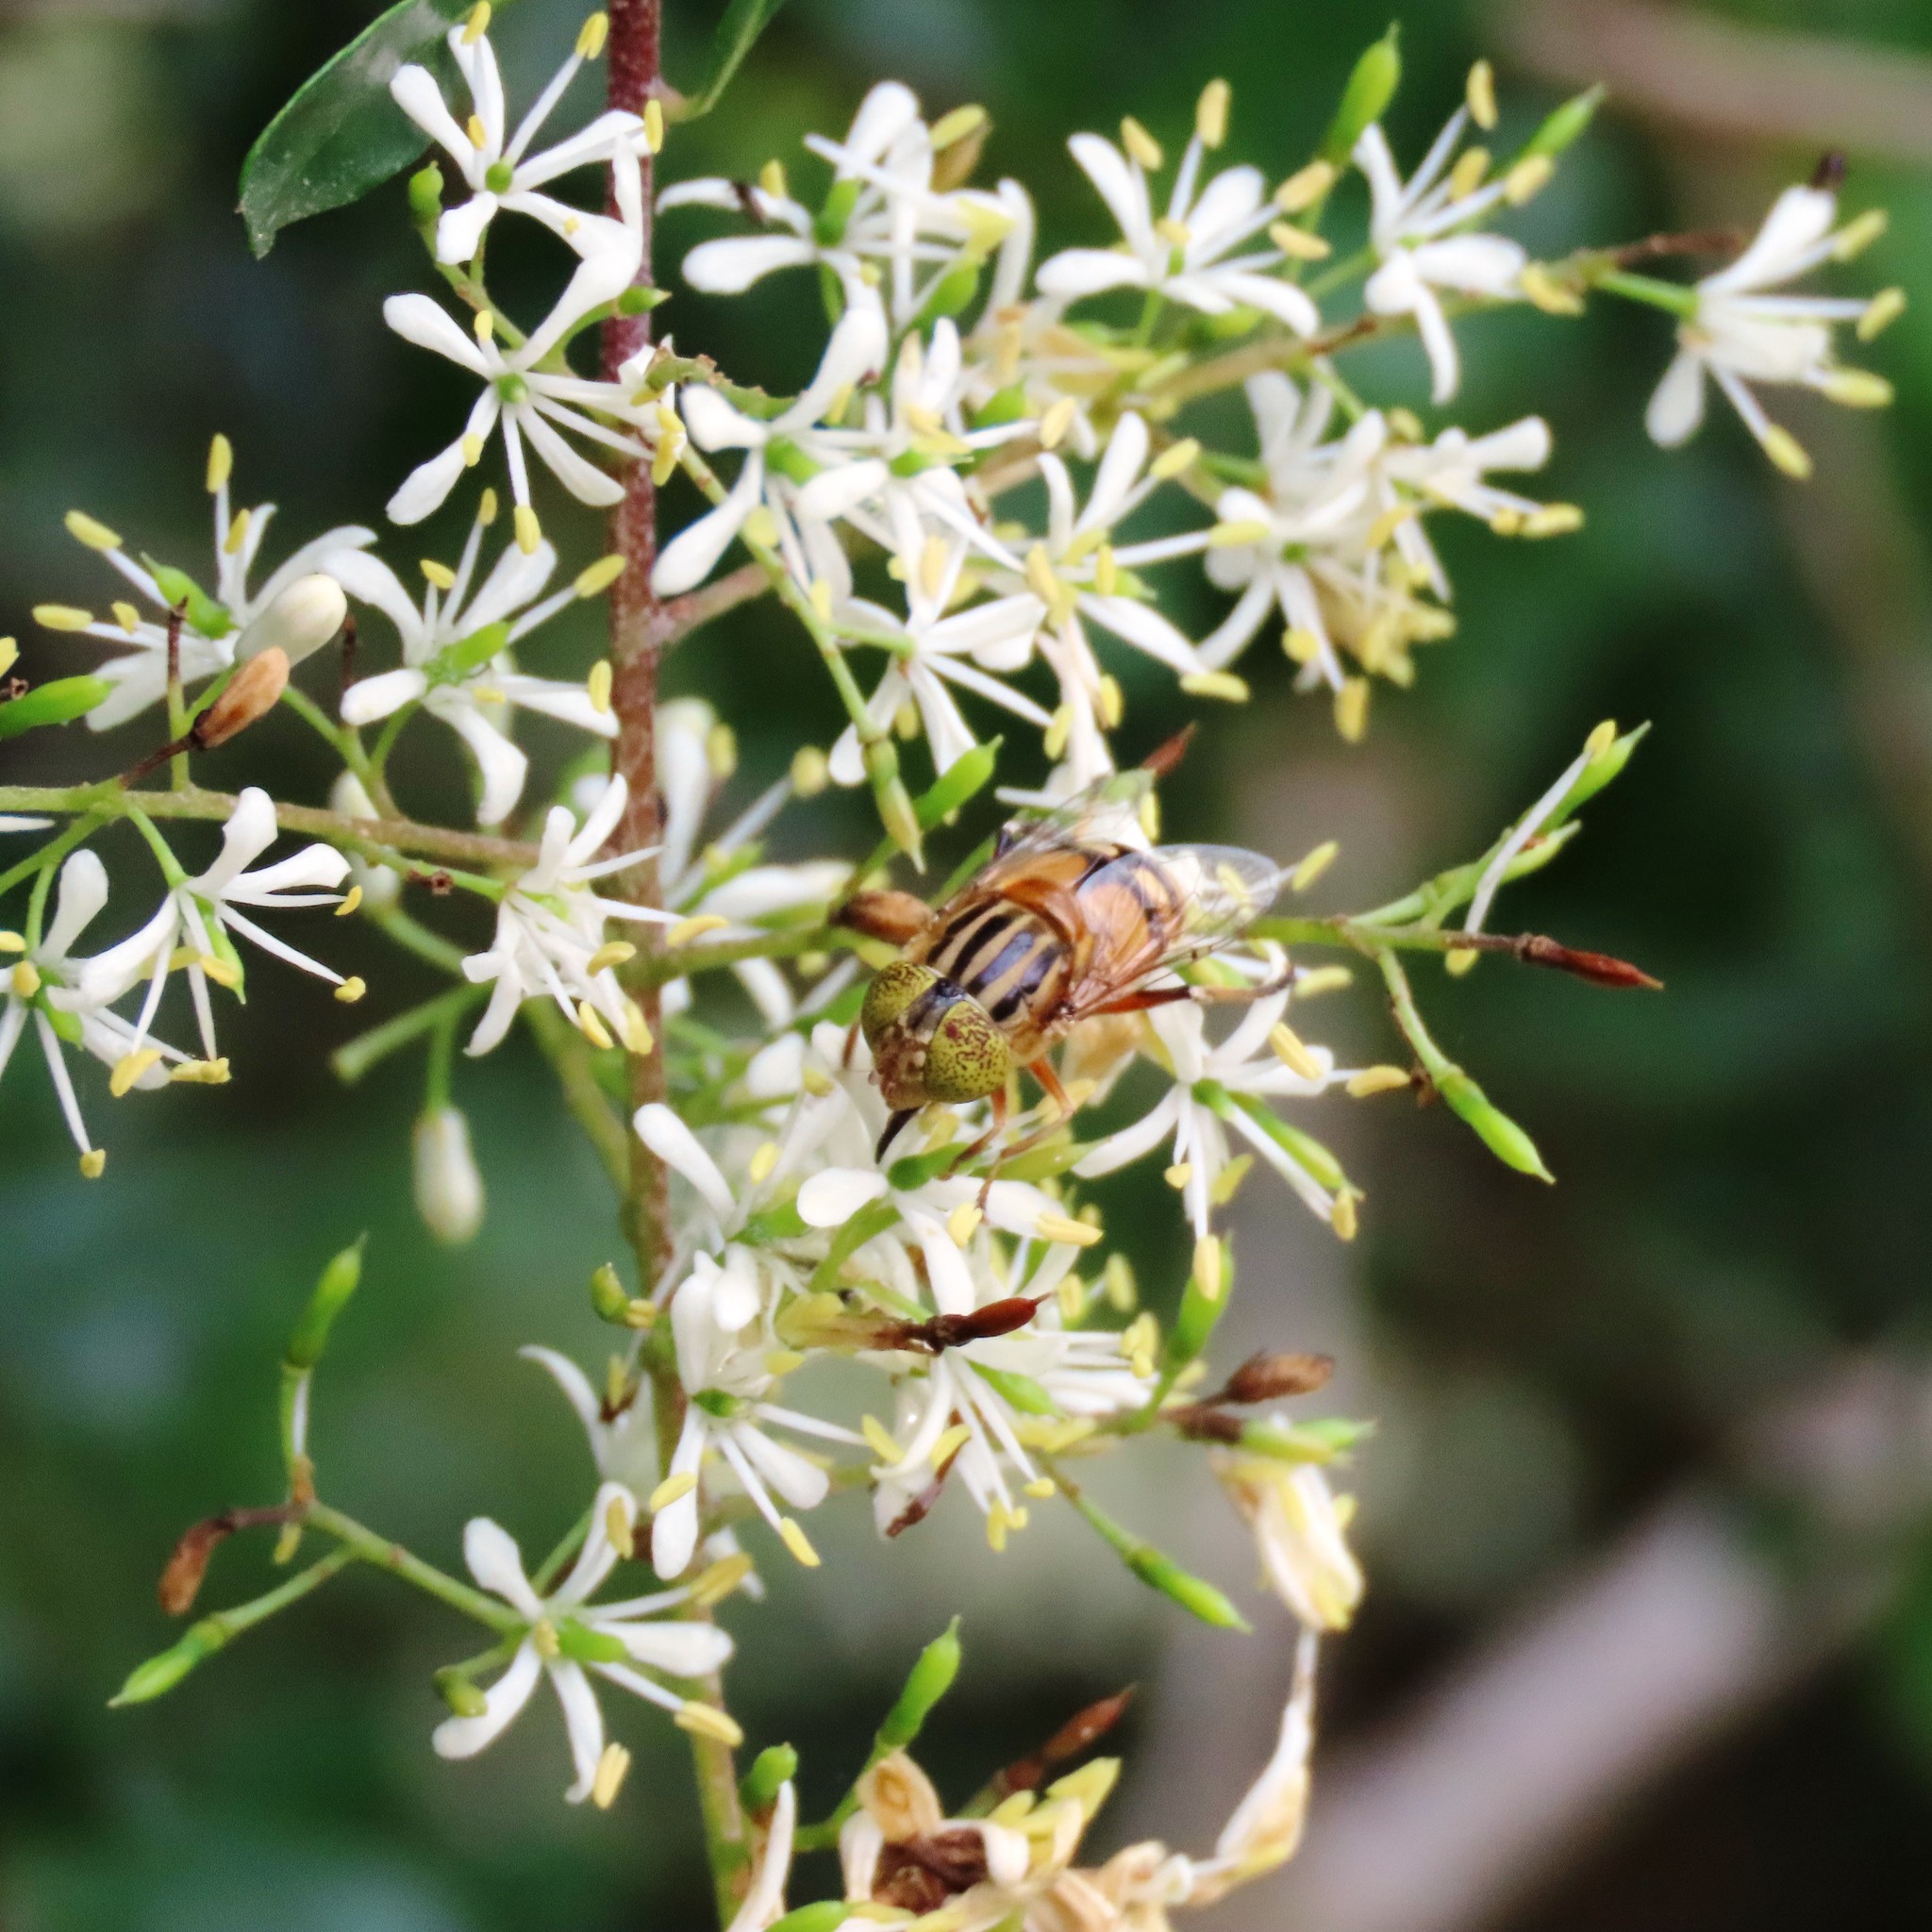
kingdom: Animalia
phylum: Arthropoda
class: Insecta
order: Diptera
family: Syrphidae
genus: Eristalinus
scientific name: Eristalinus punctulatus
